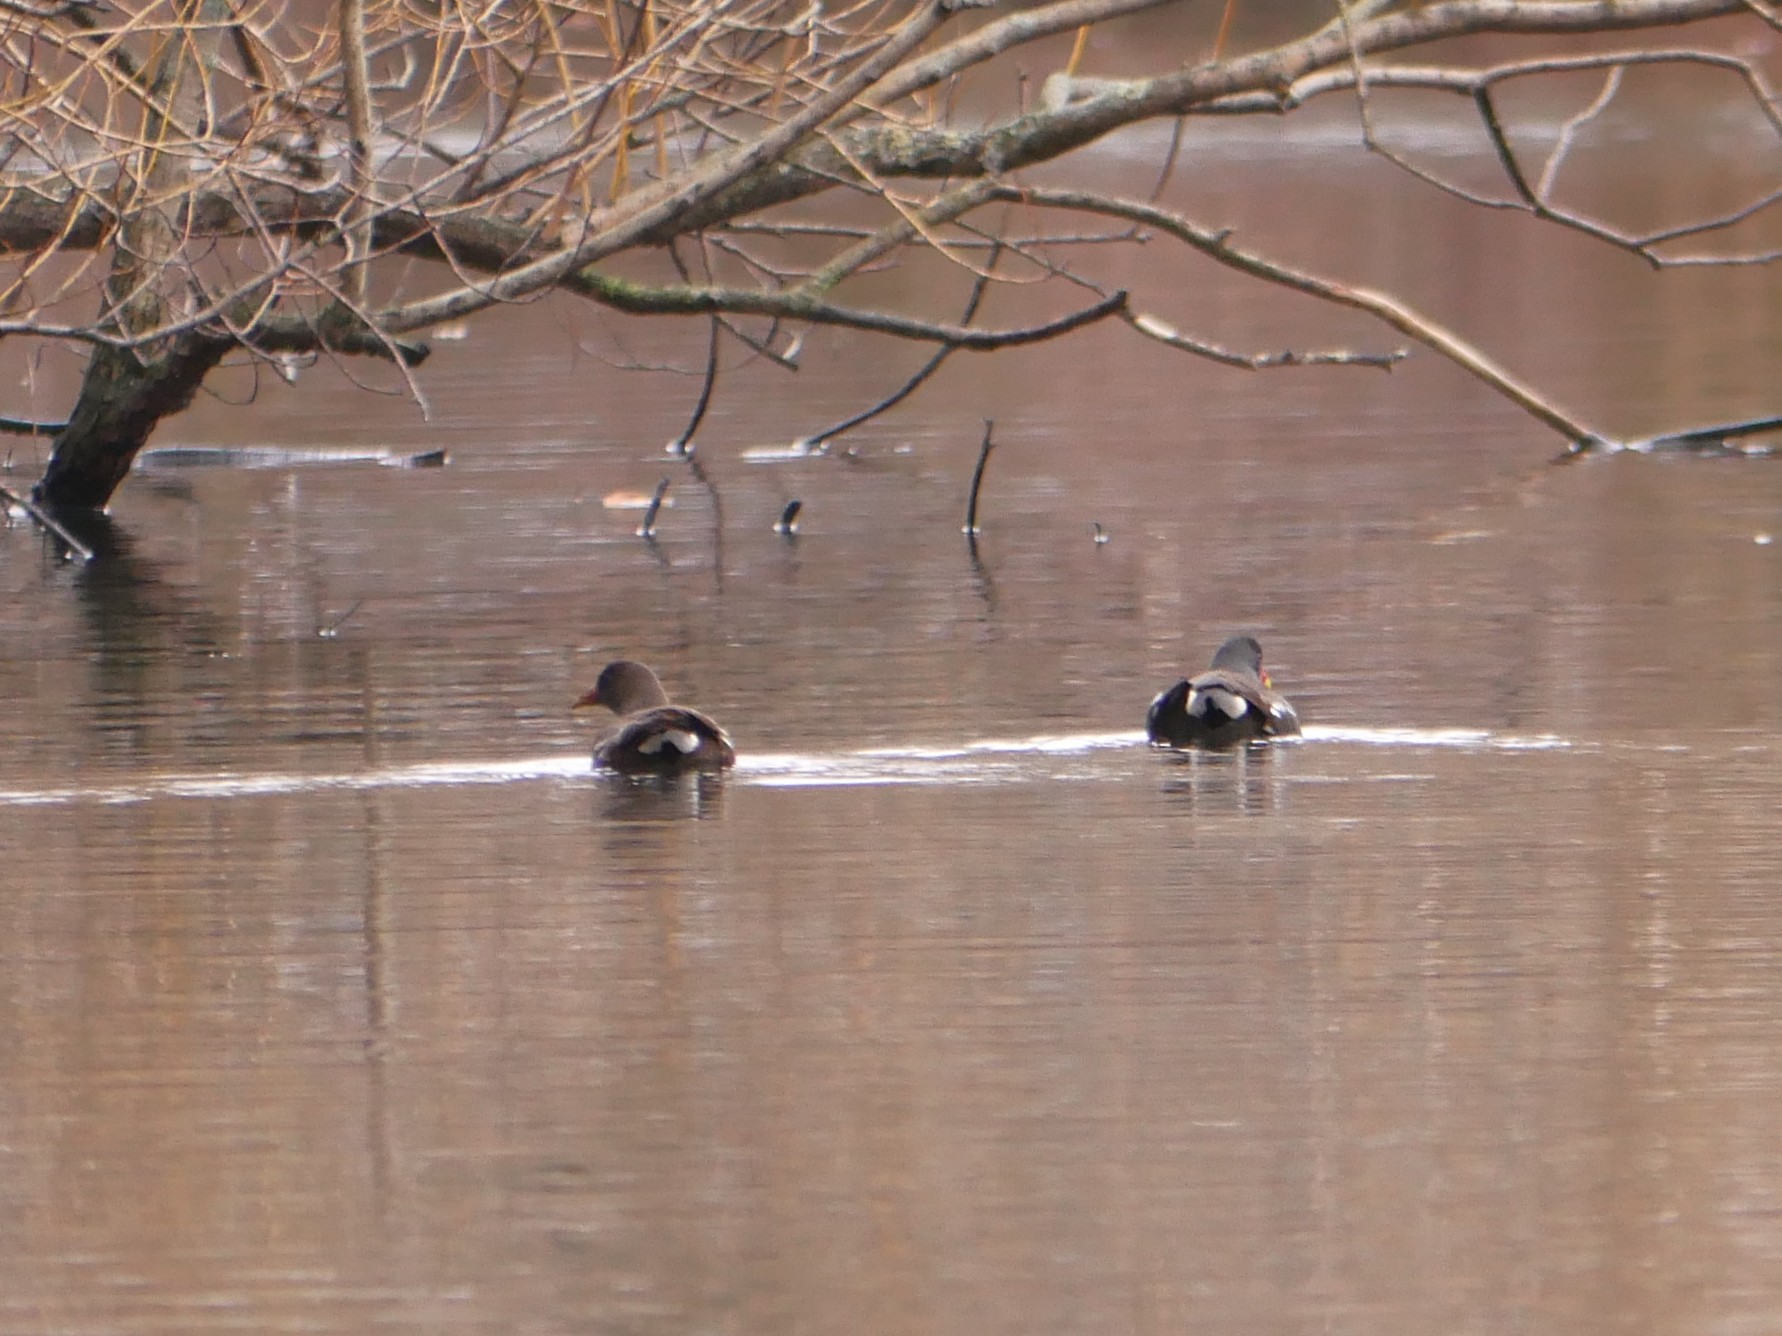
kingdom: Animalia
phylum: Chordata
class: Aves
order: Gruiformes
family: Rallidae
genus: Gallinula
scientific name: Gallinula chloropus
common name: Common moorhen
